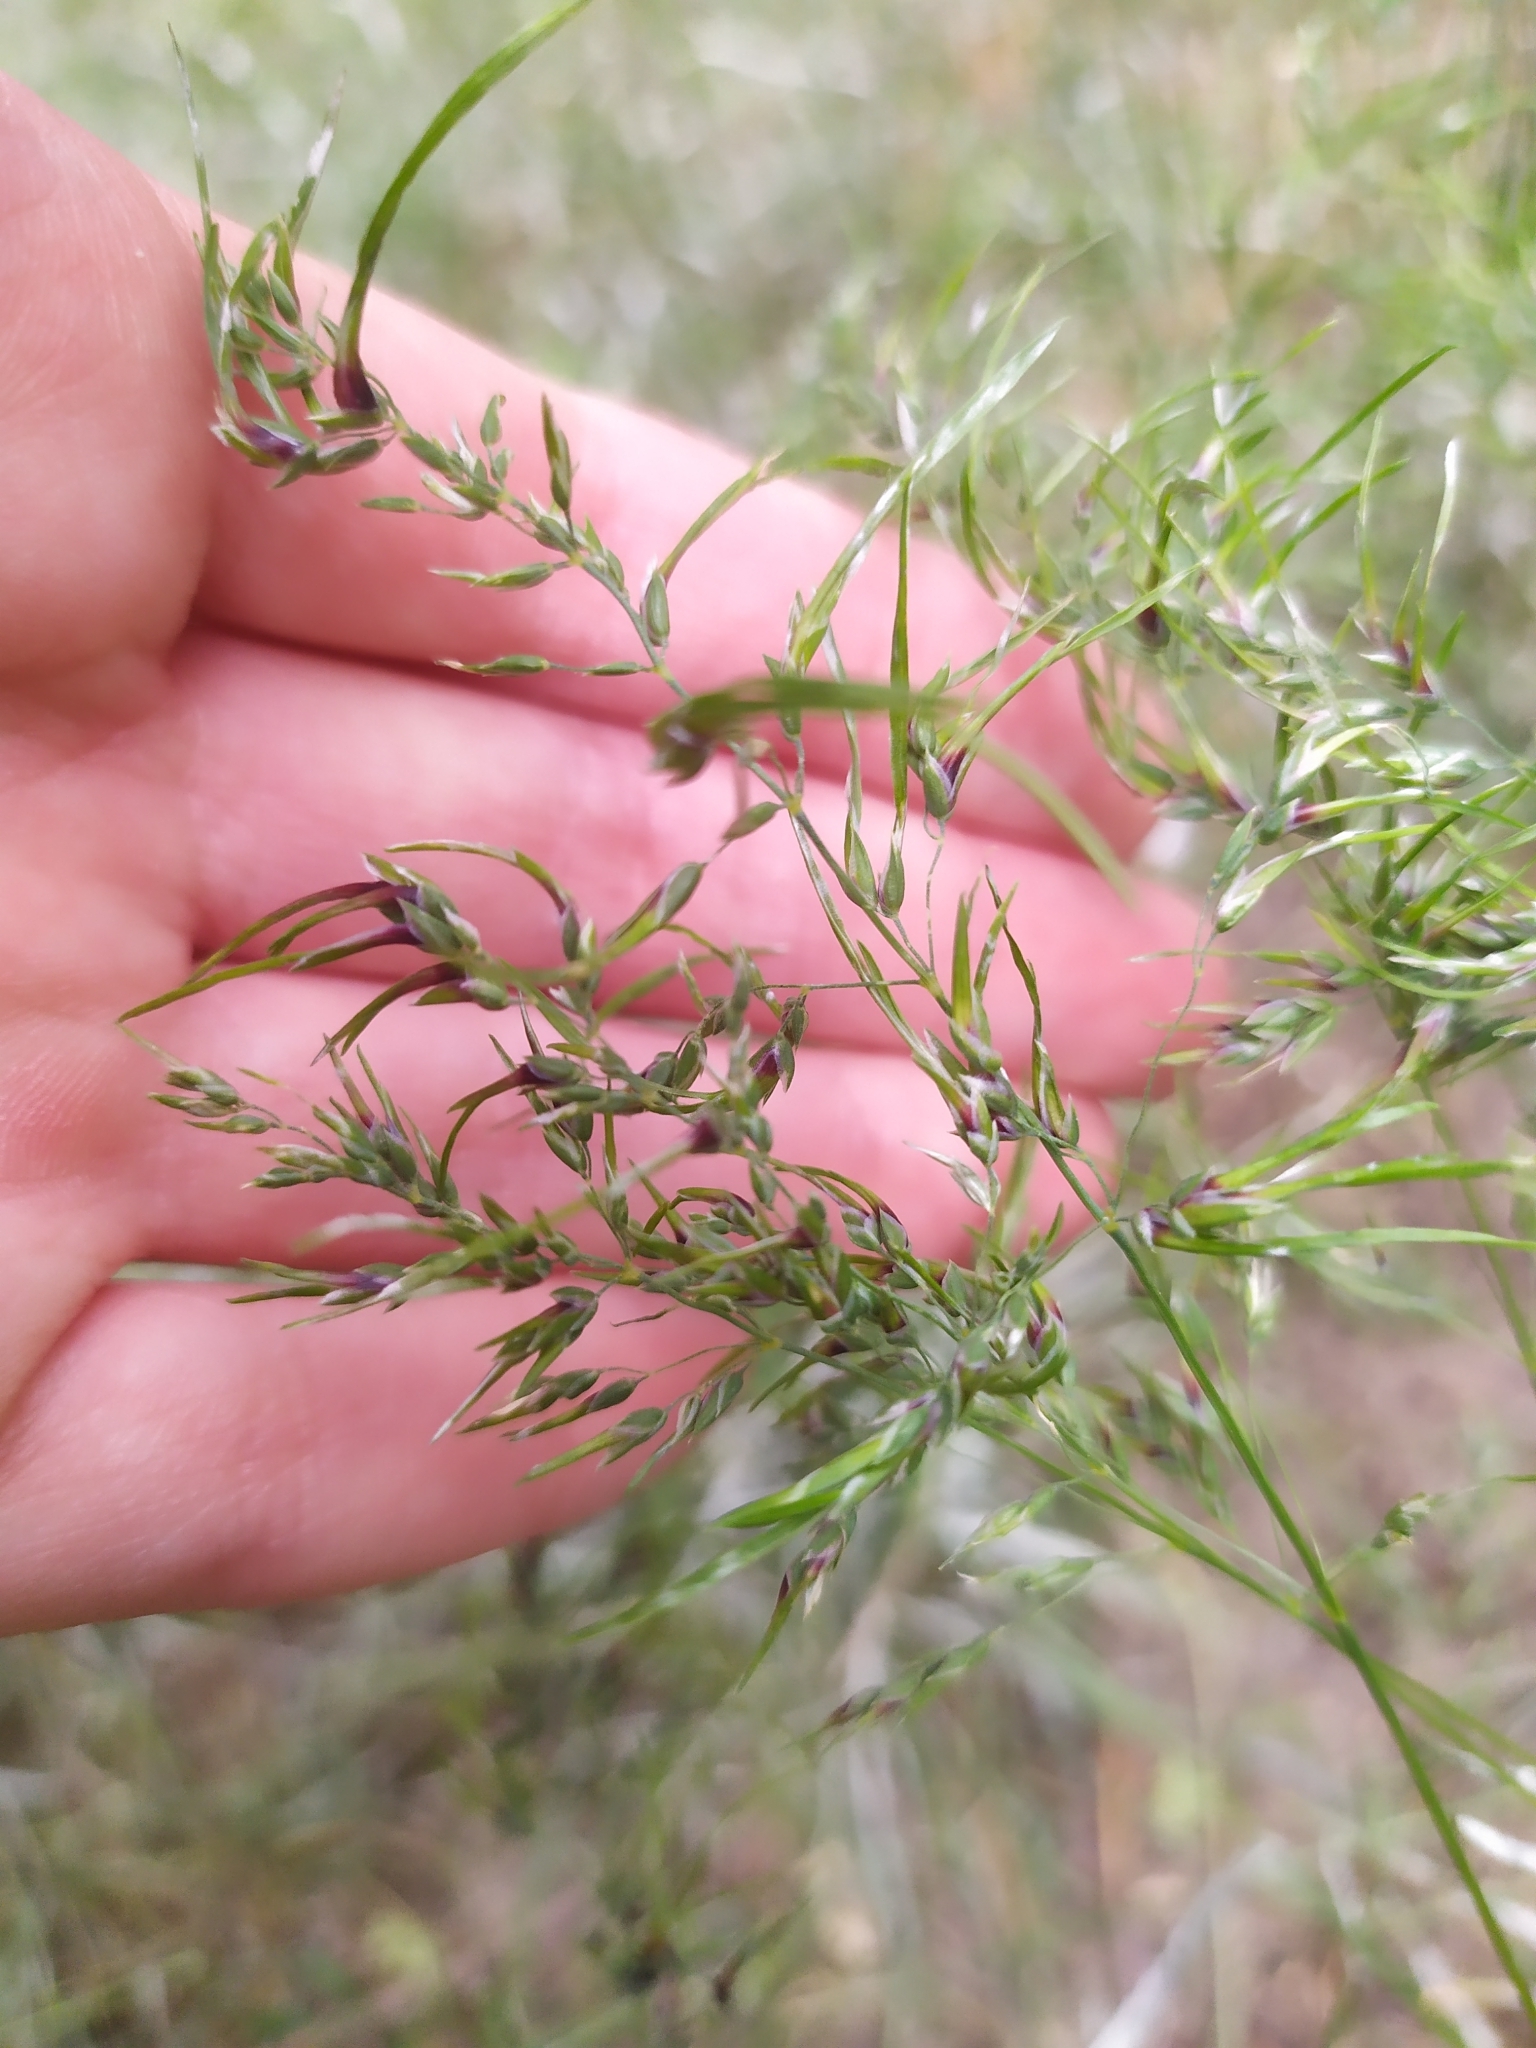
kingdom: Plantae
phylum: Tracheophyta
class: Liliopsida
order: Poales
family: Poaceae
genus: Poa
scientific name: Poa bulbosa
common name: Bulbous bluegrass
